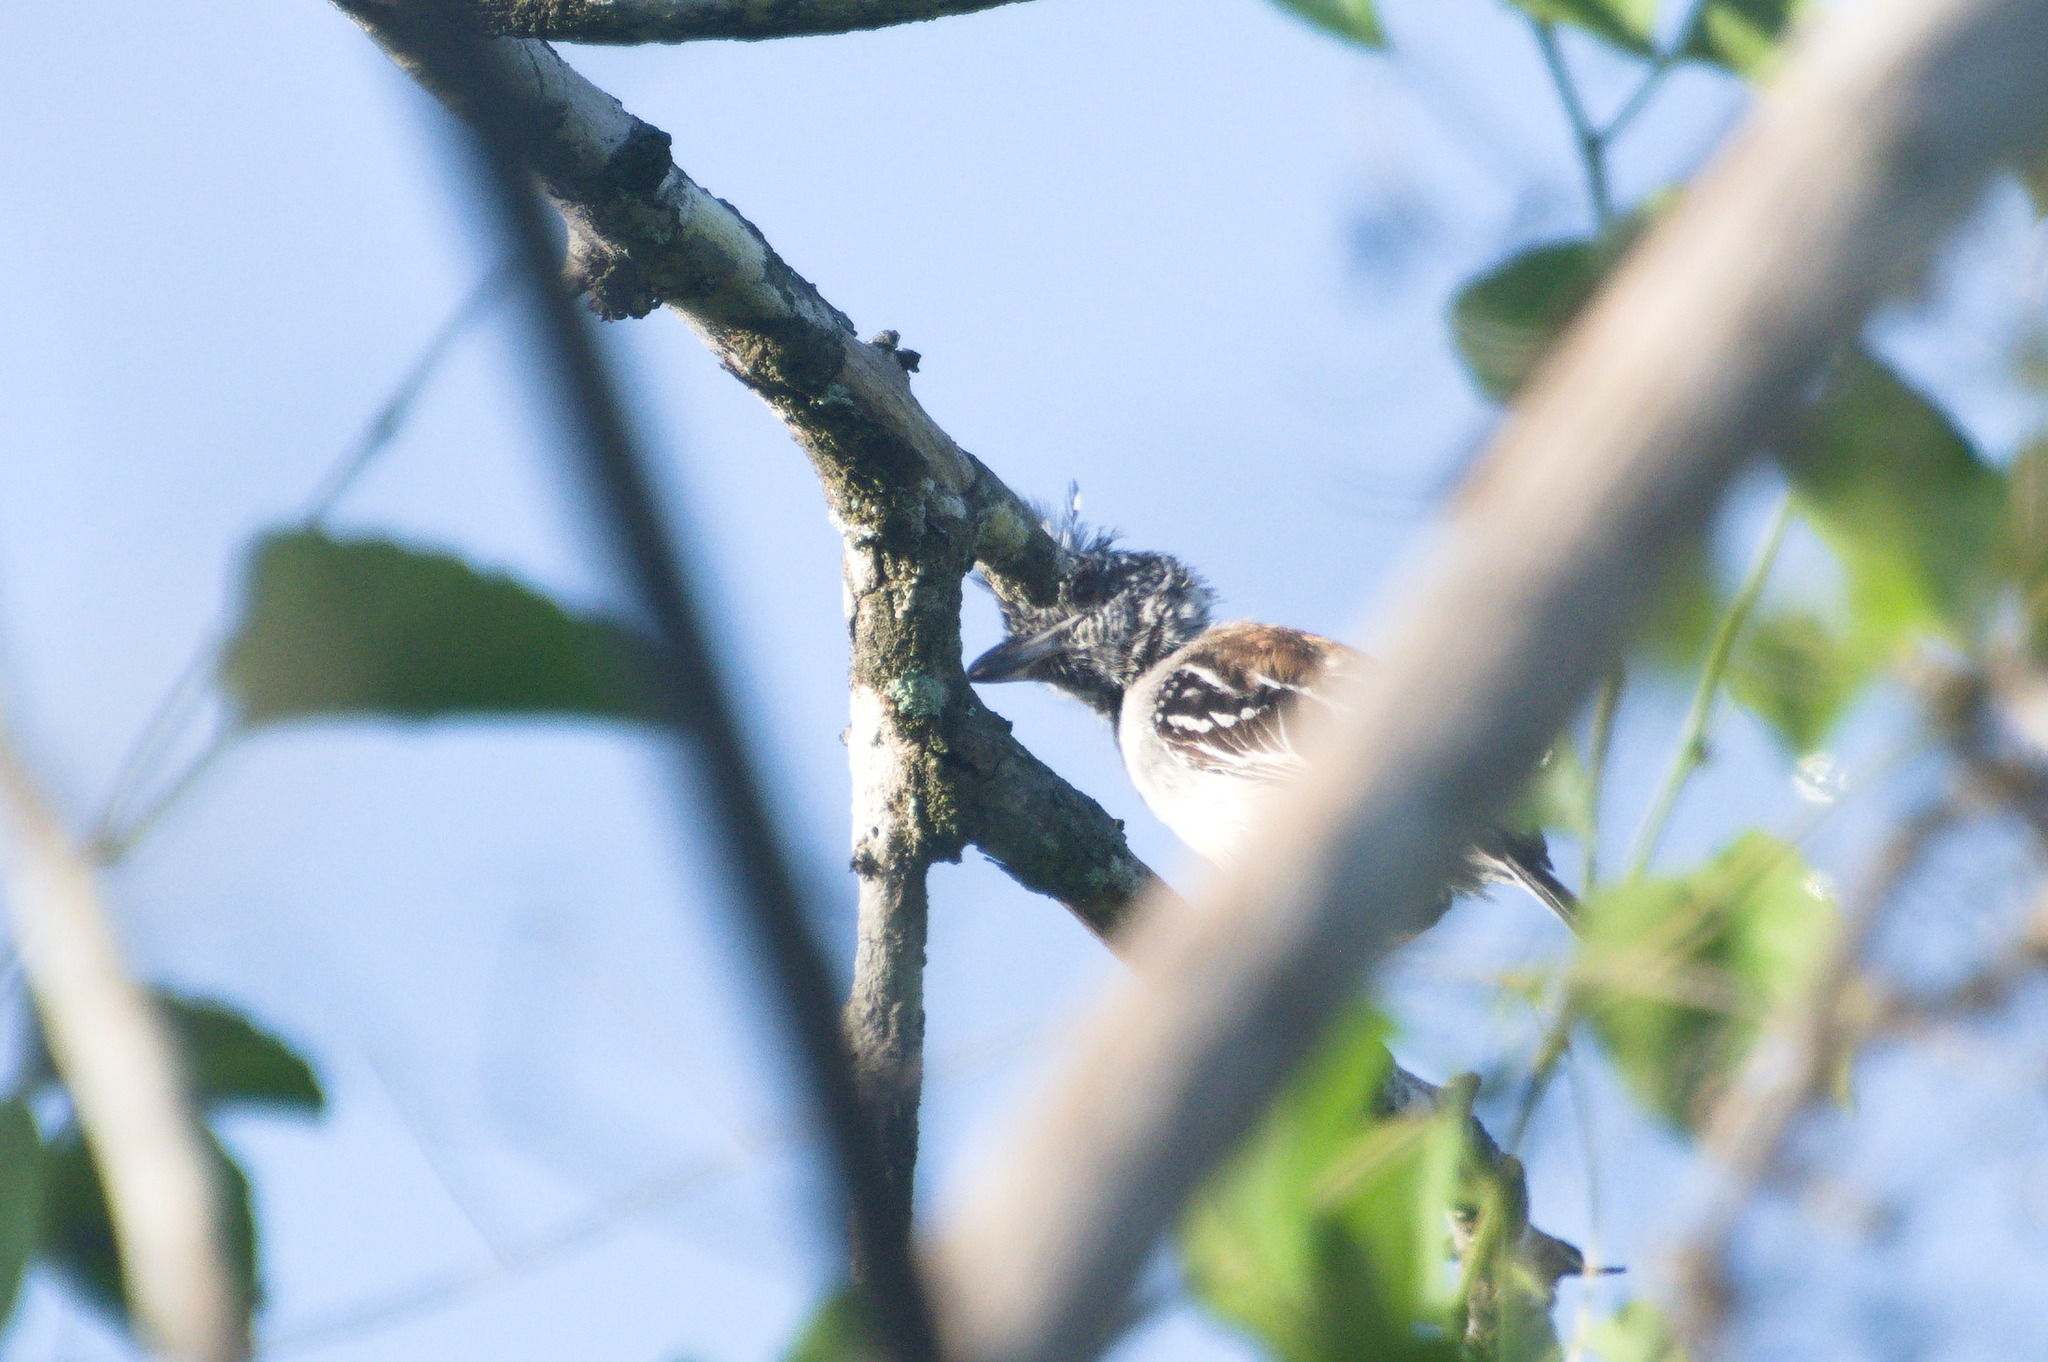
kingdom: Animalia
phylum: Chordata
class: Aves
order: Passeriformes
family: Thamnophilidae
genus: Sakesphorus
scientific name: Sakesphorus canadensis
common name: Black-crested antshrike
